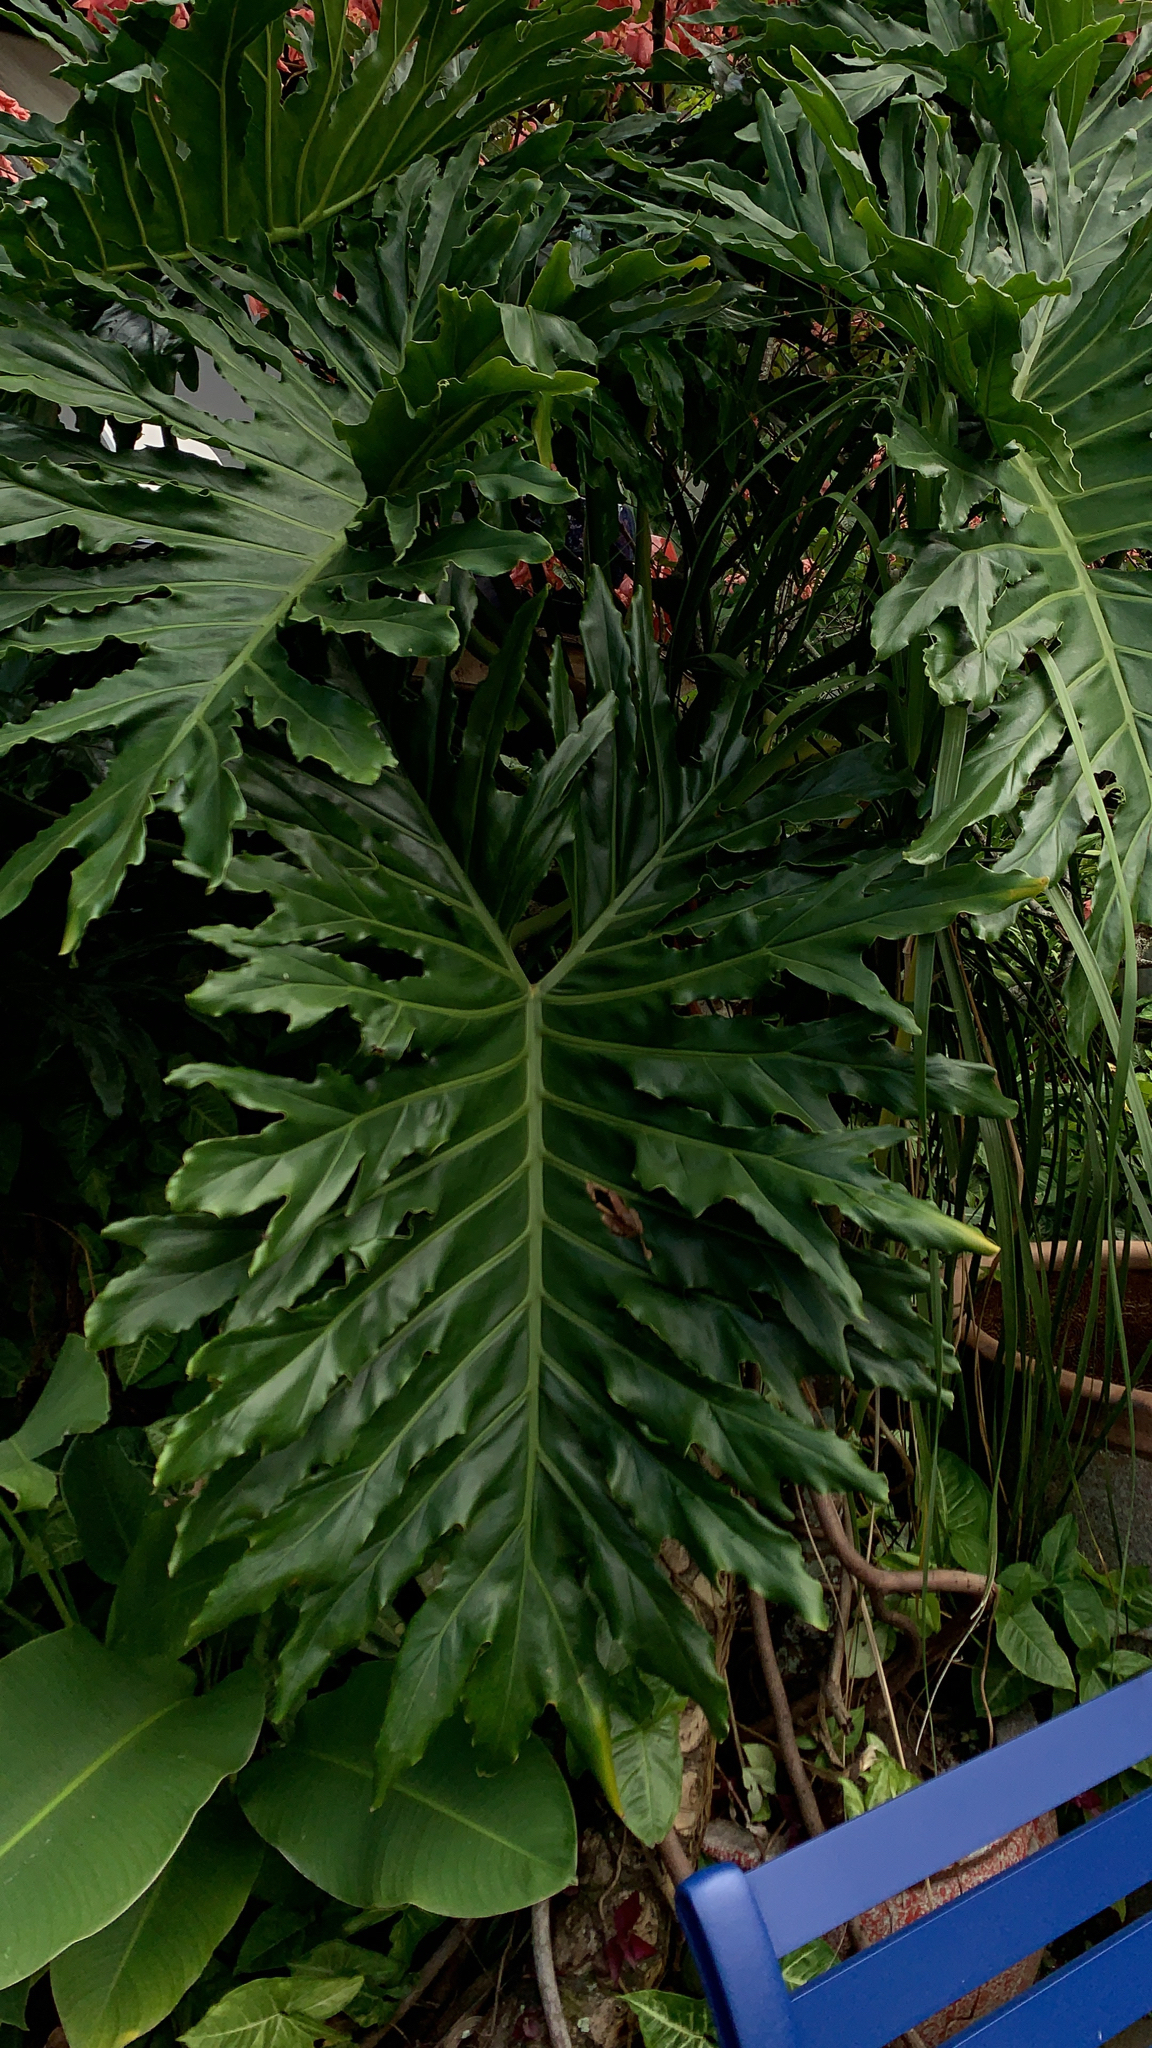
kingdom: Plantae
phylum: Tracheophyta
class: Liliopsida
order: Alismatales
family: Araceae
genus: Thaumatophyllum
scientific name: Thaumatophyllum bipinnatifidum
